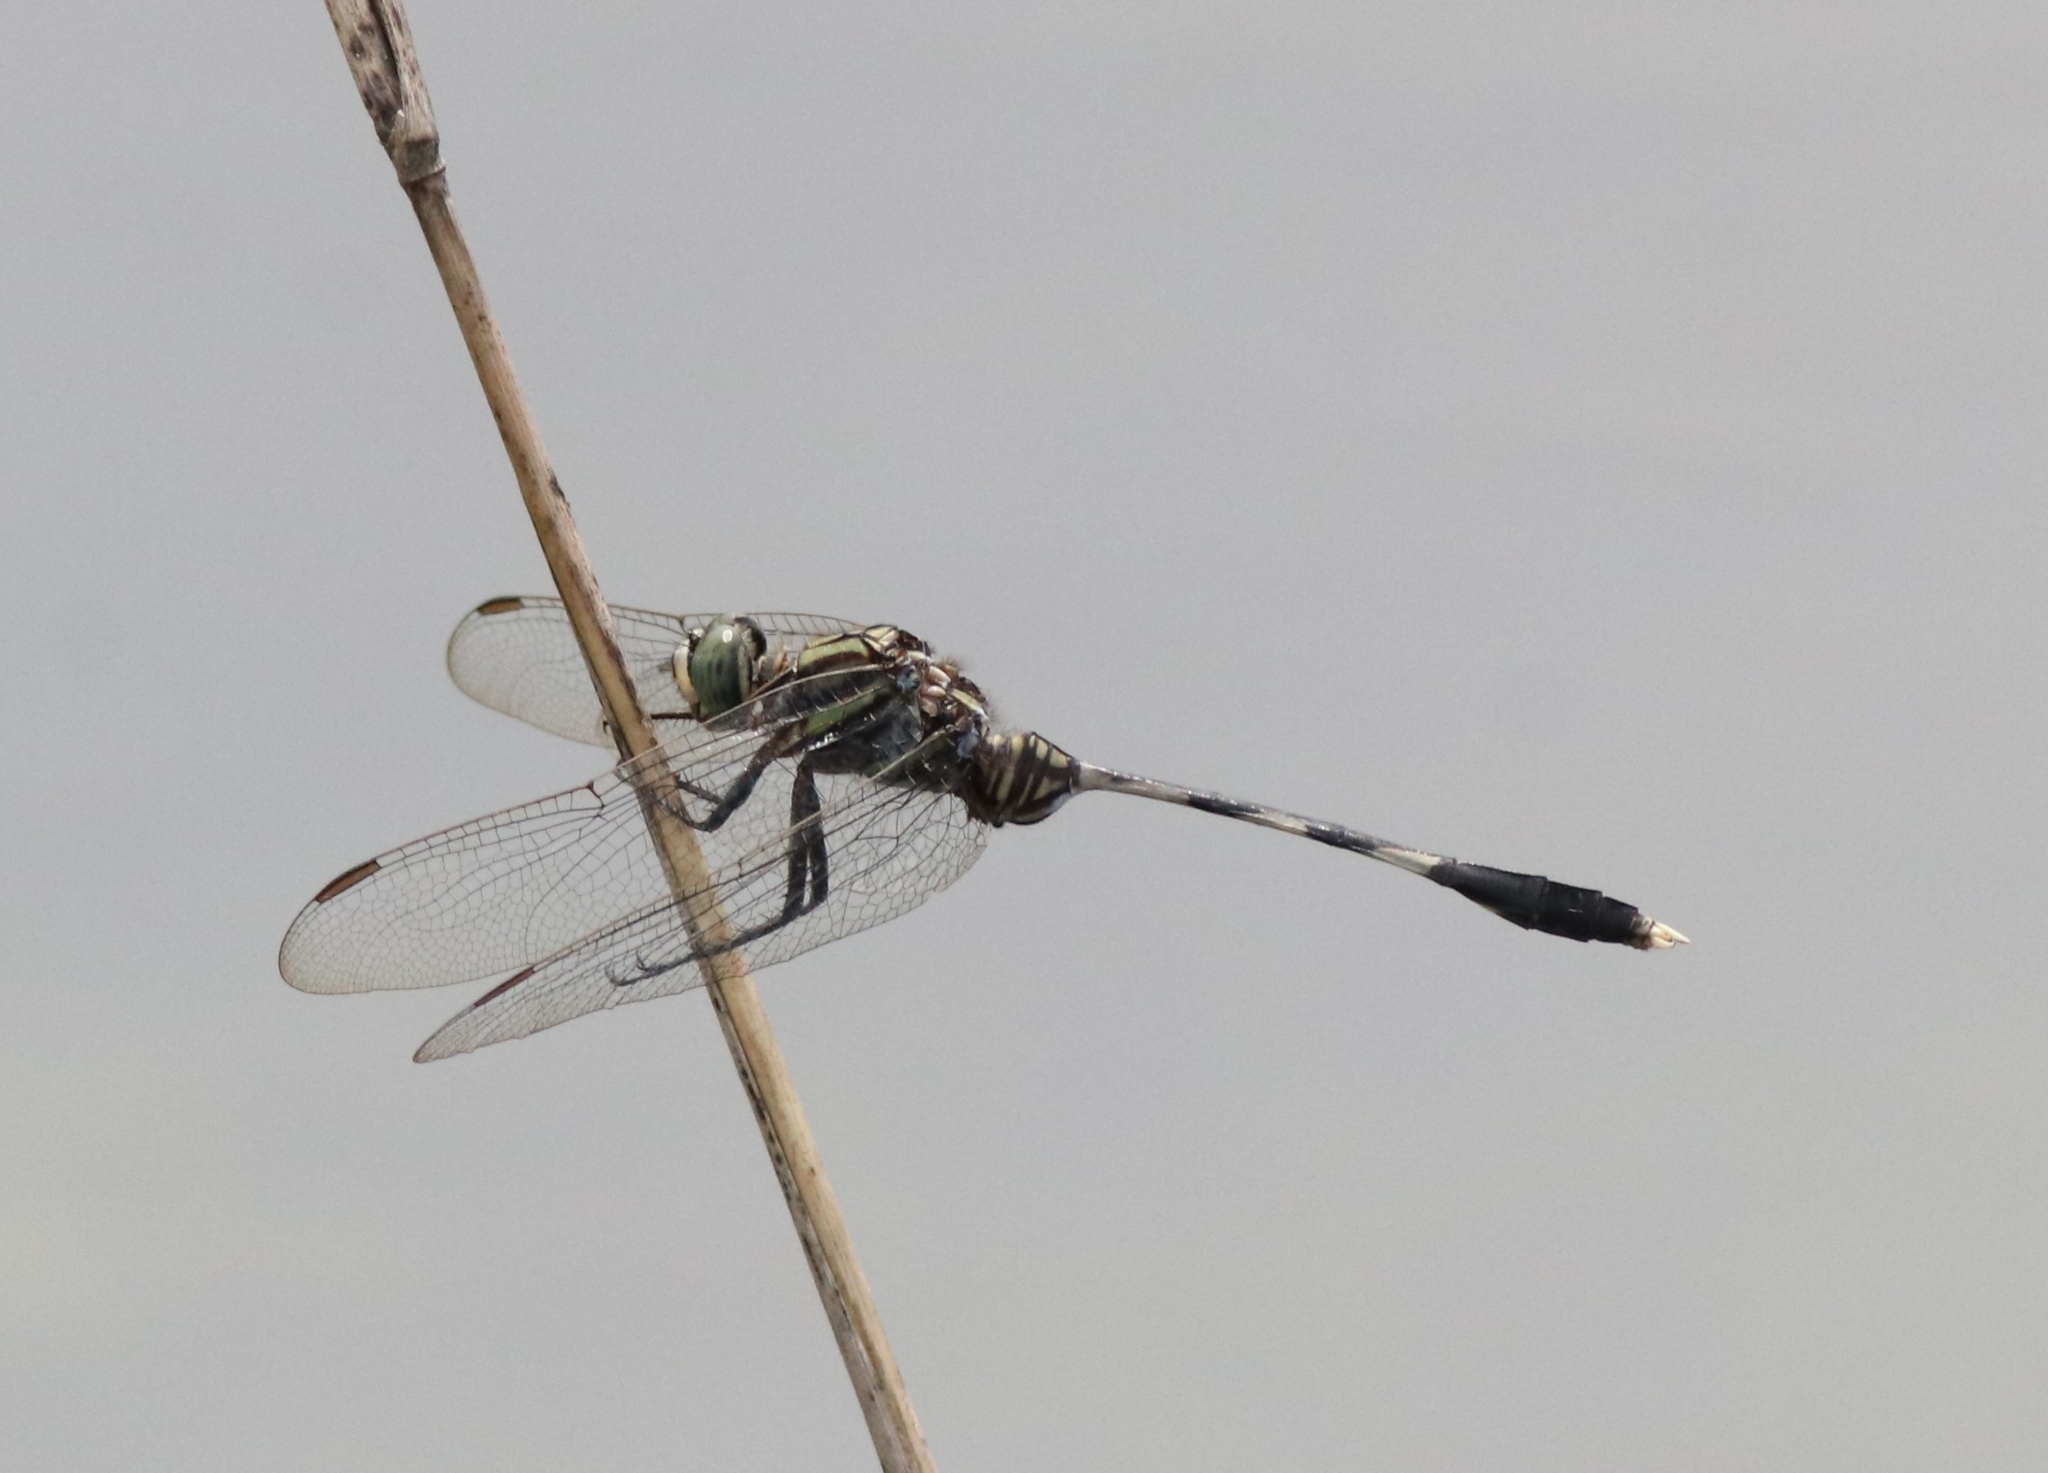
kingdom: Animalia
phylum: Arthropoda
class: Insecta
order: Odonata
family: Libellulidae
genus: Orthetrum
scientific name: Orthetrum sabina
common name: Slender skimmer
